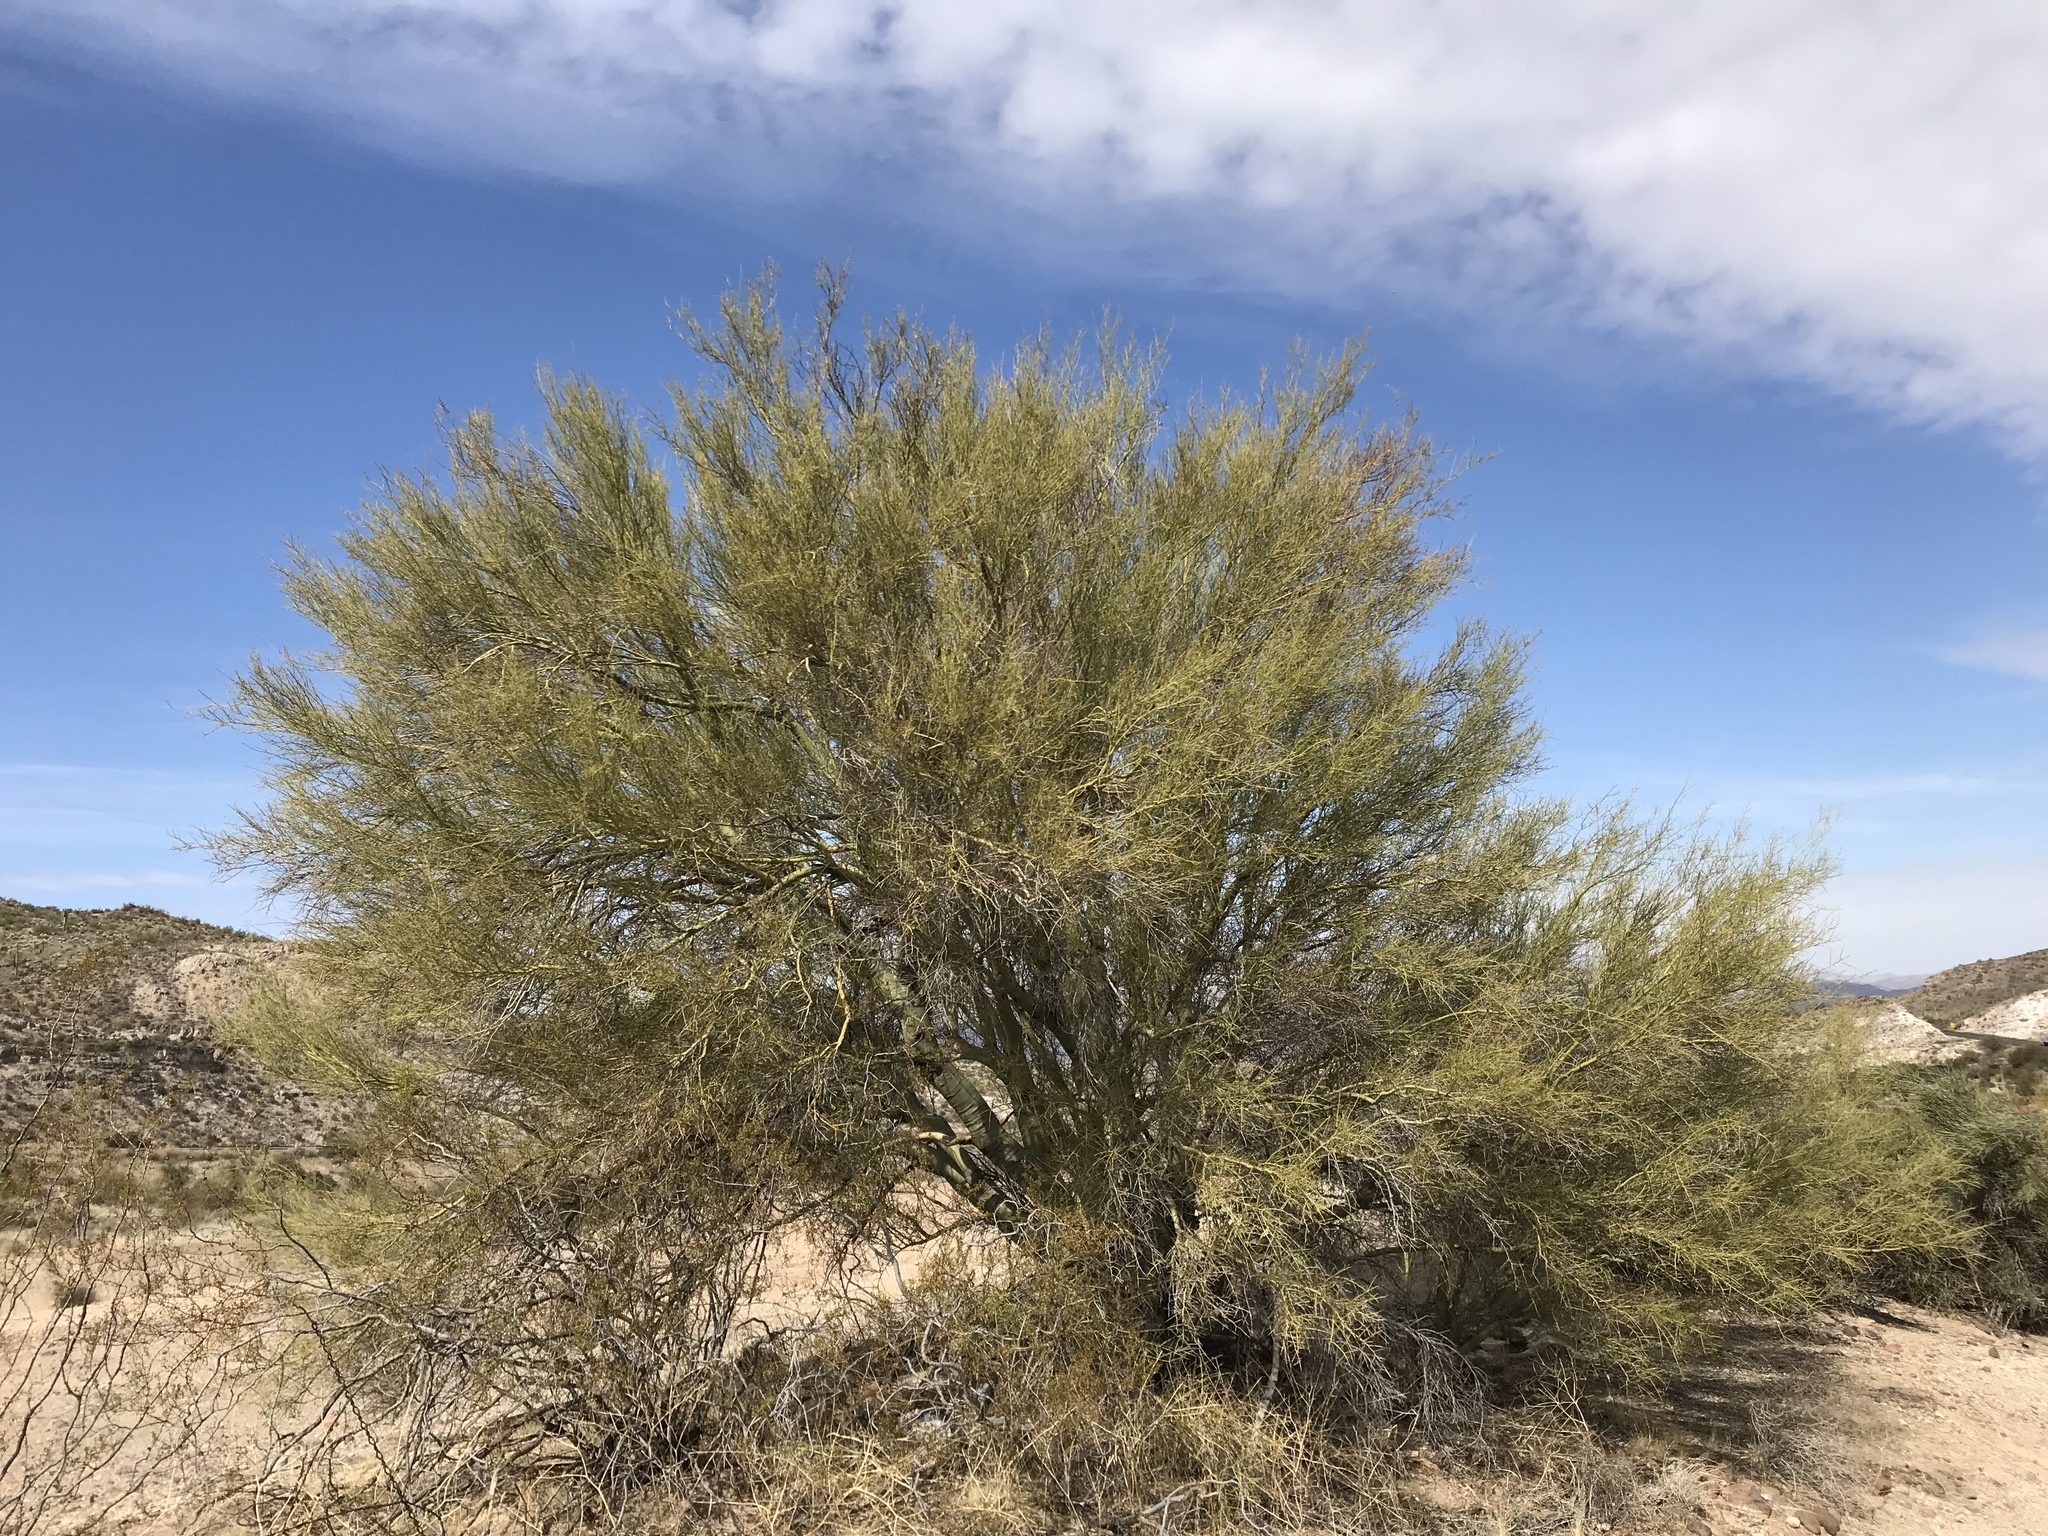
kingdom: Plantae
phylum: Tracheophyta
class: Magnoliopsida
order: Fabales
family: Fabaceae
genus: Parkinsonia
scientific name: Parkinsonia microphylla
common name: Yellow paloverde
